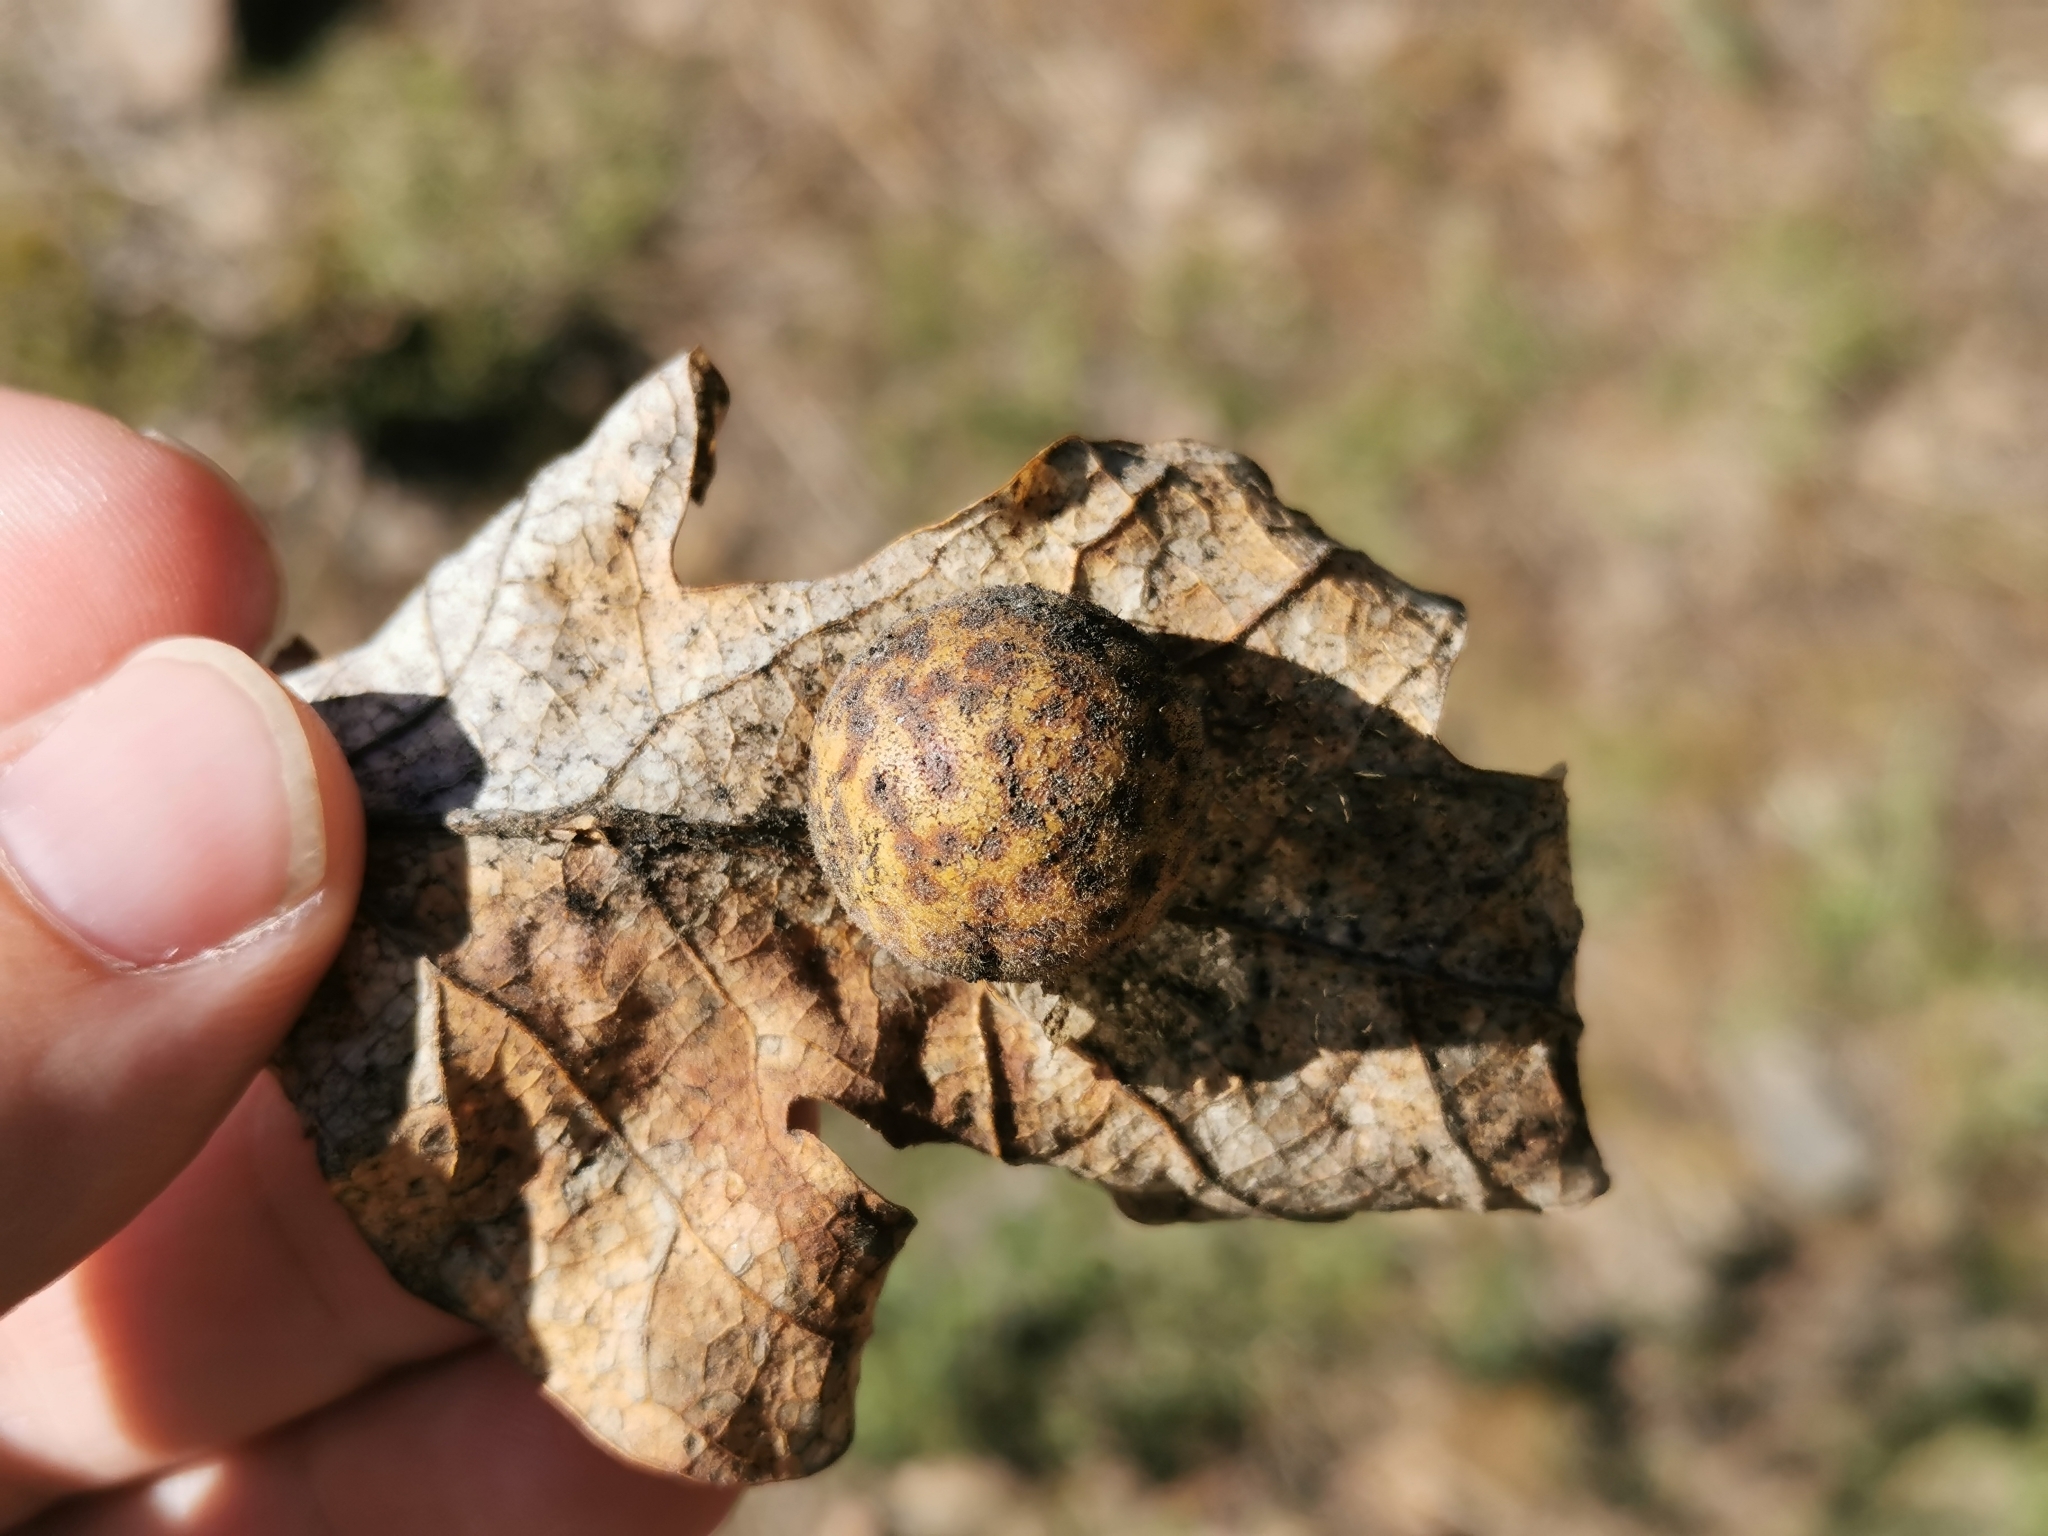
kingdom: Animalia
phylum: Arthropoda
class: Insecta
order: Hymenoptera
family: Cynipidae
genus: Cynips
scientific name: Cynips
